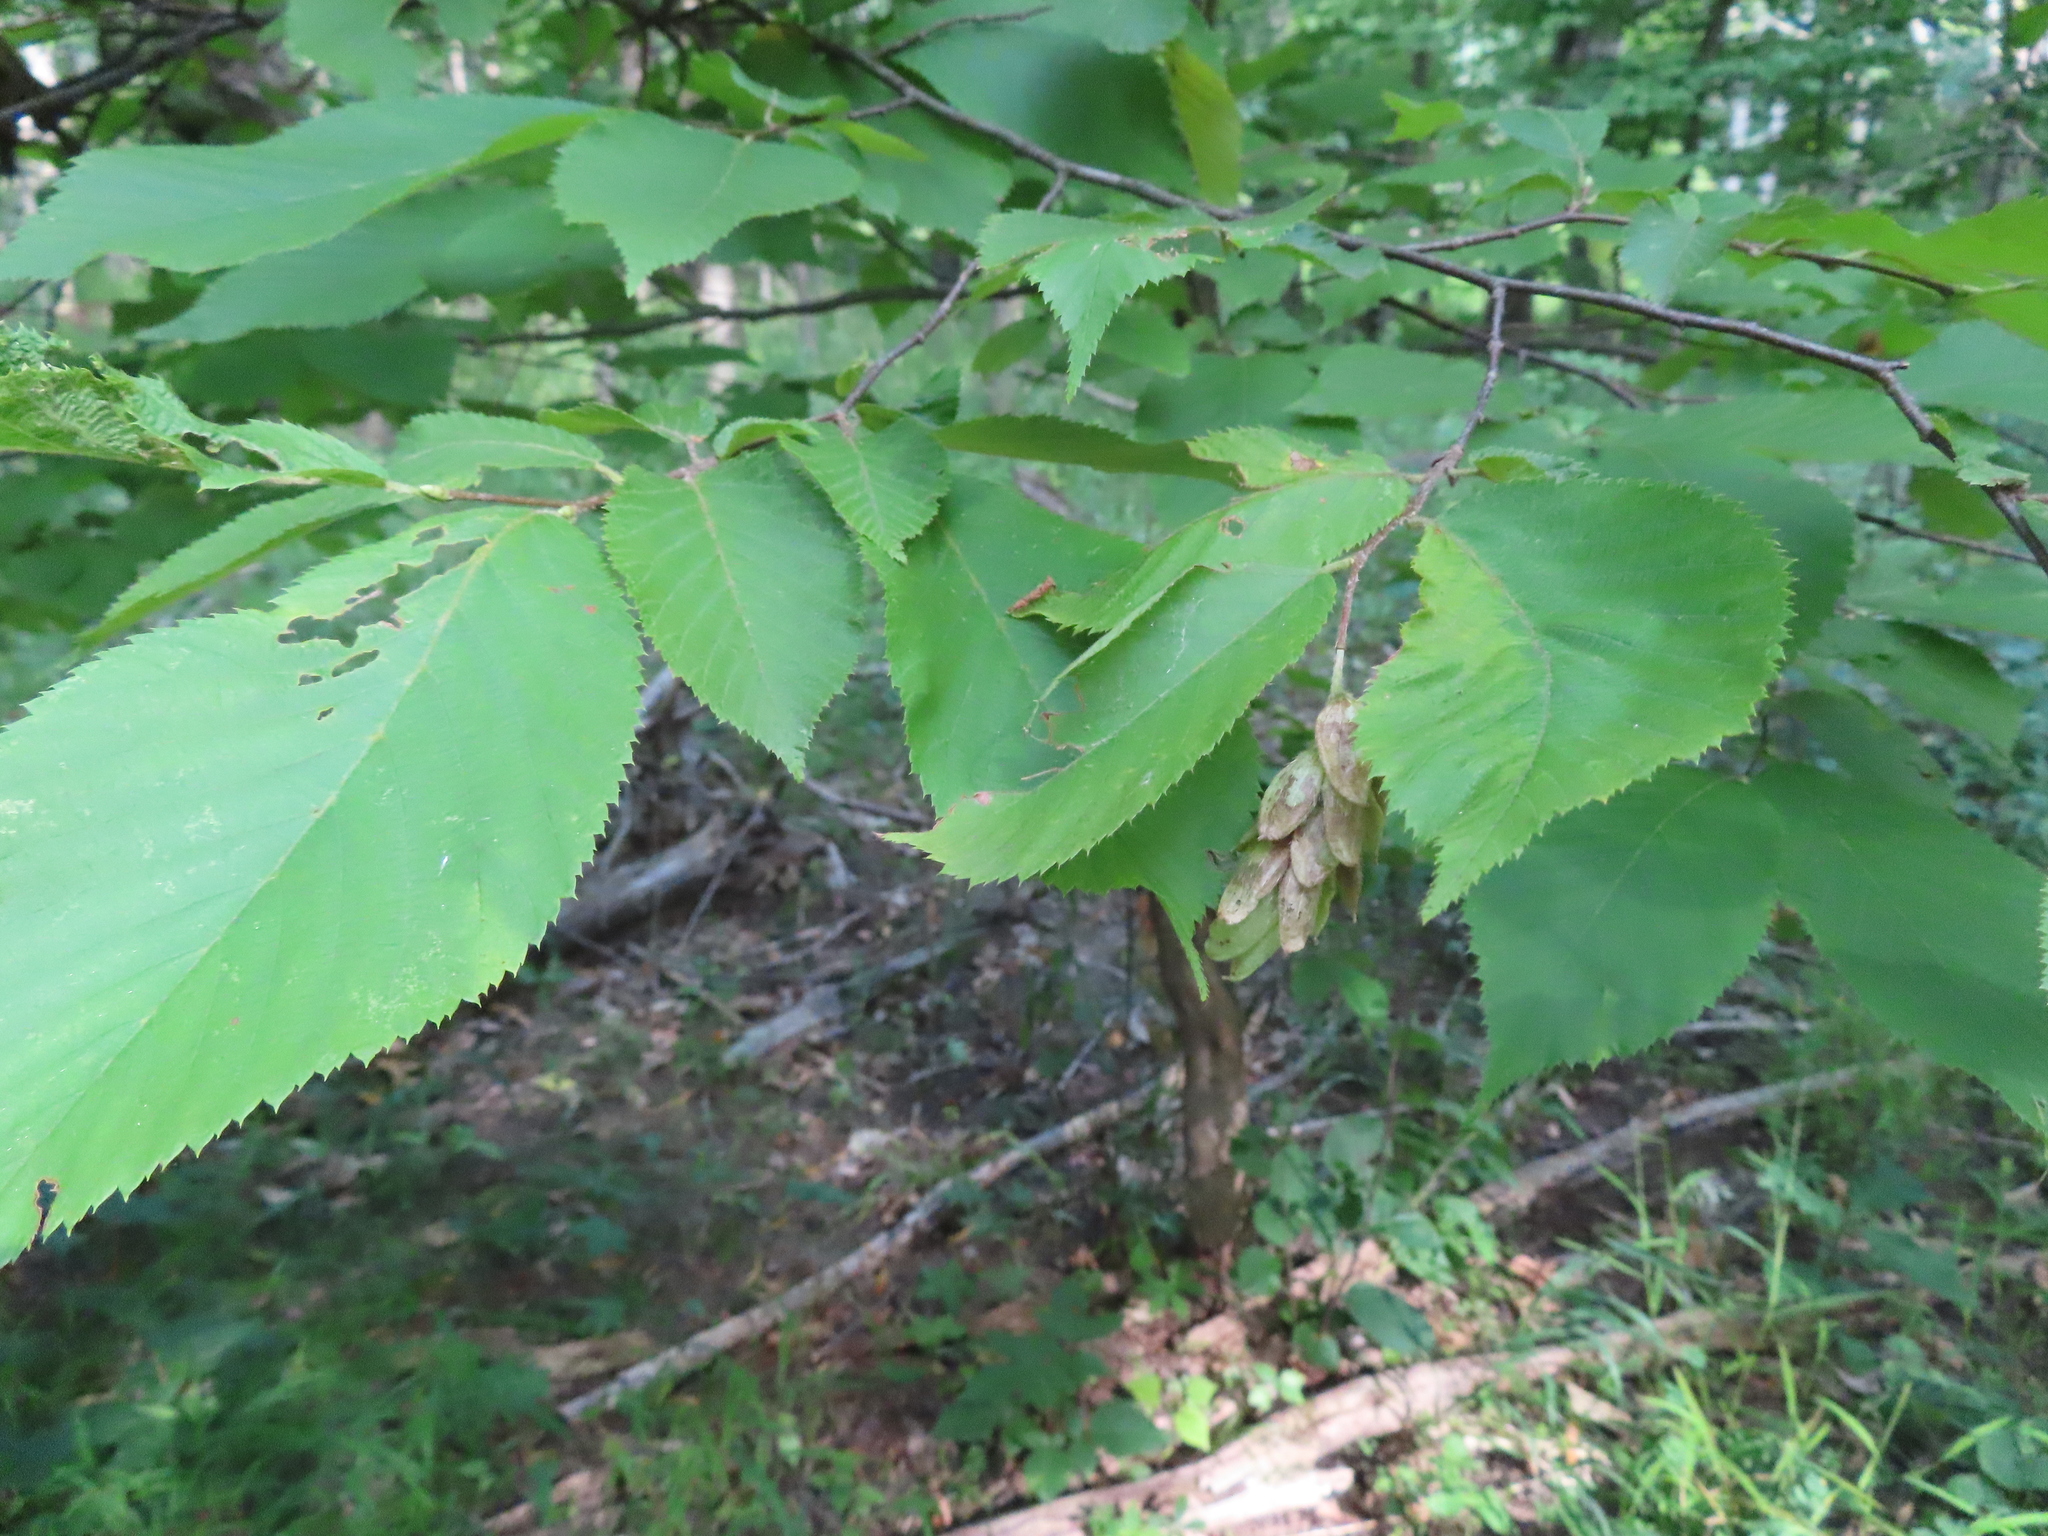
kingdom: Plantae
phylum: Tracheophyta
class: Magnoliopsida
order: Fagales
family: Betulaceae
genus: Ostrya
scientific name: Ostrya virginiana
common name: Ironwood
